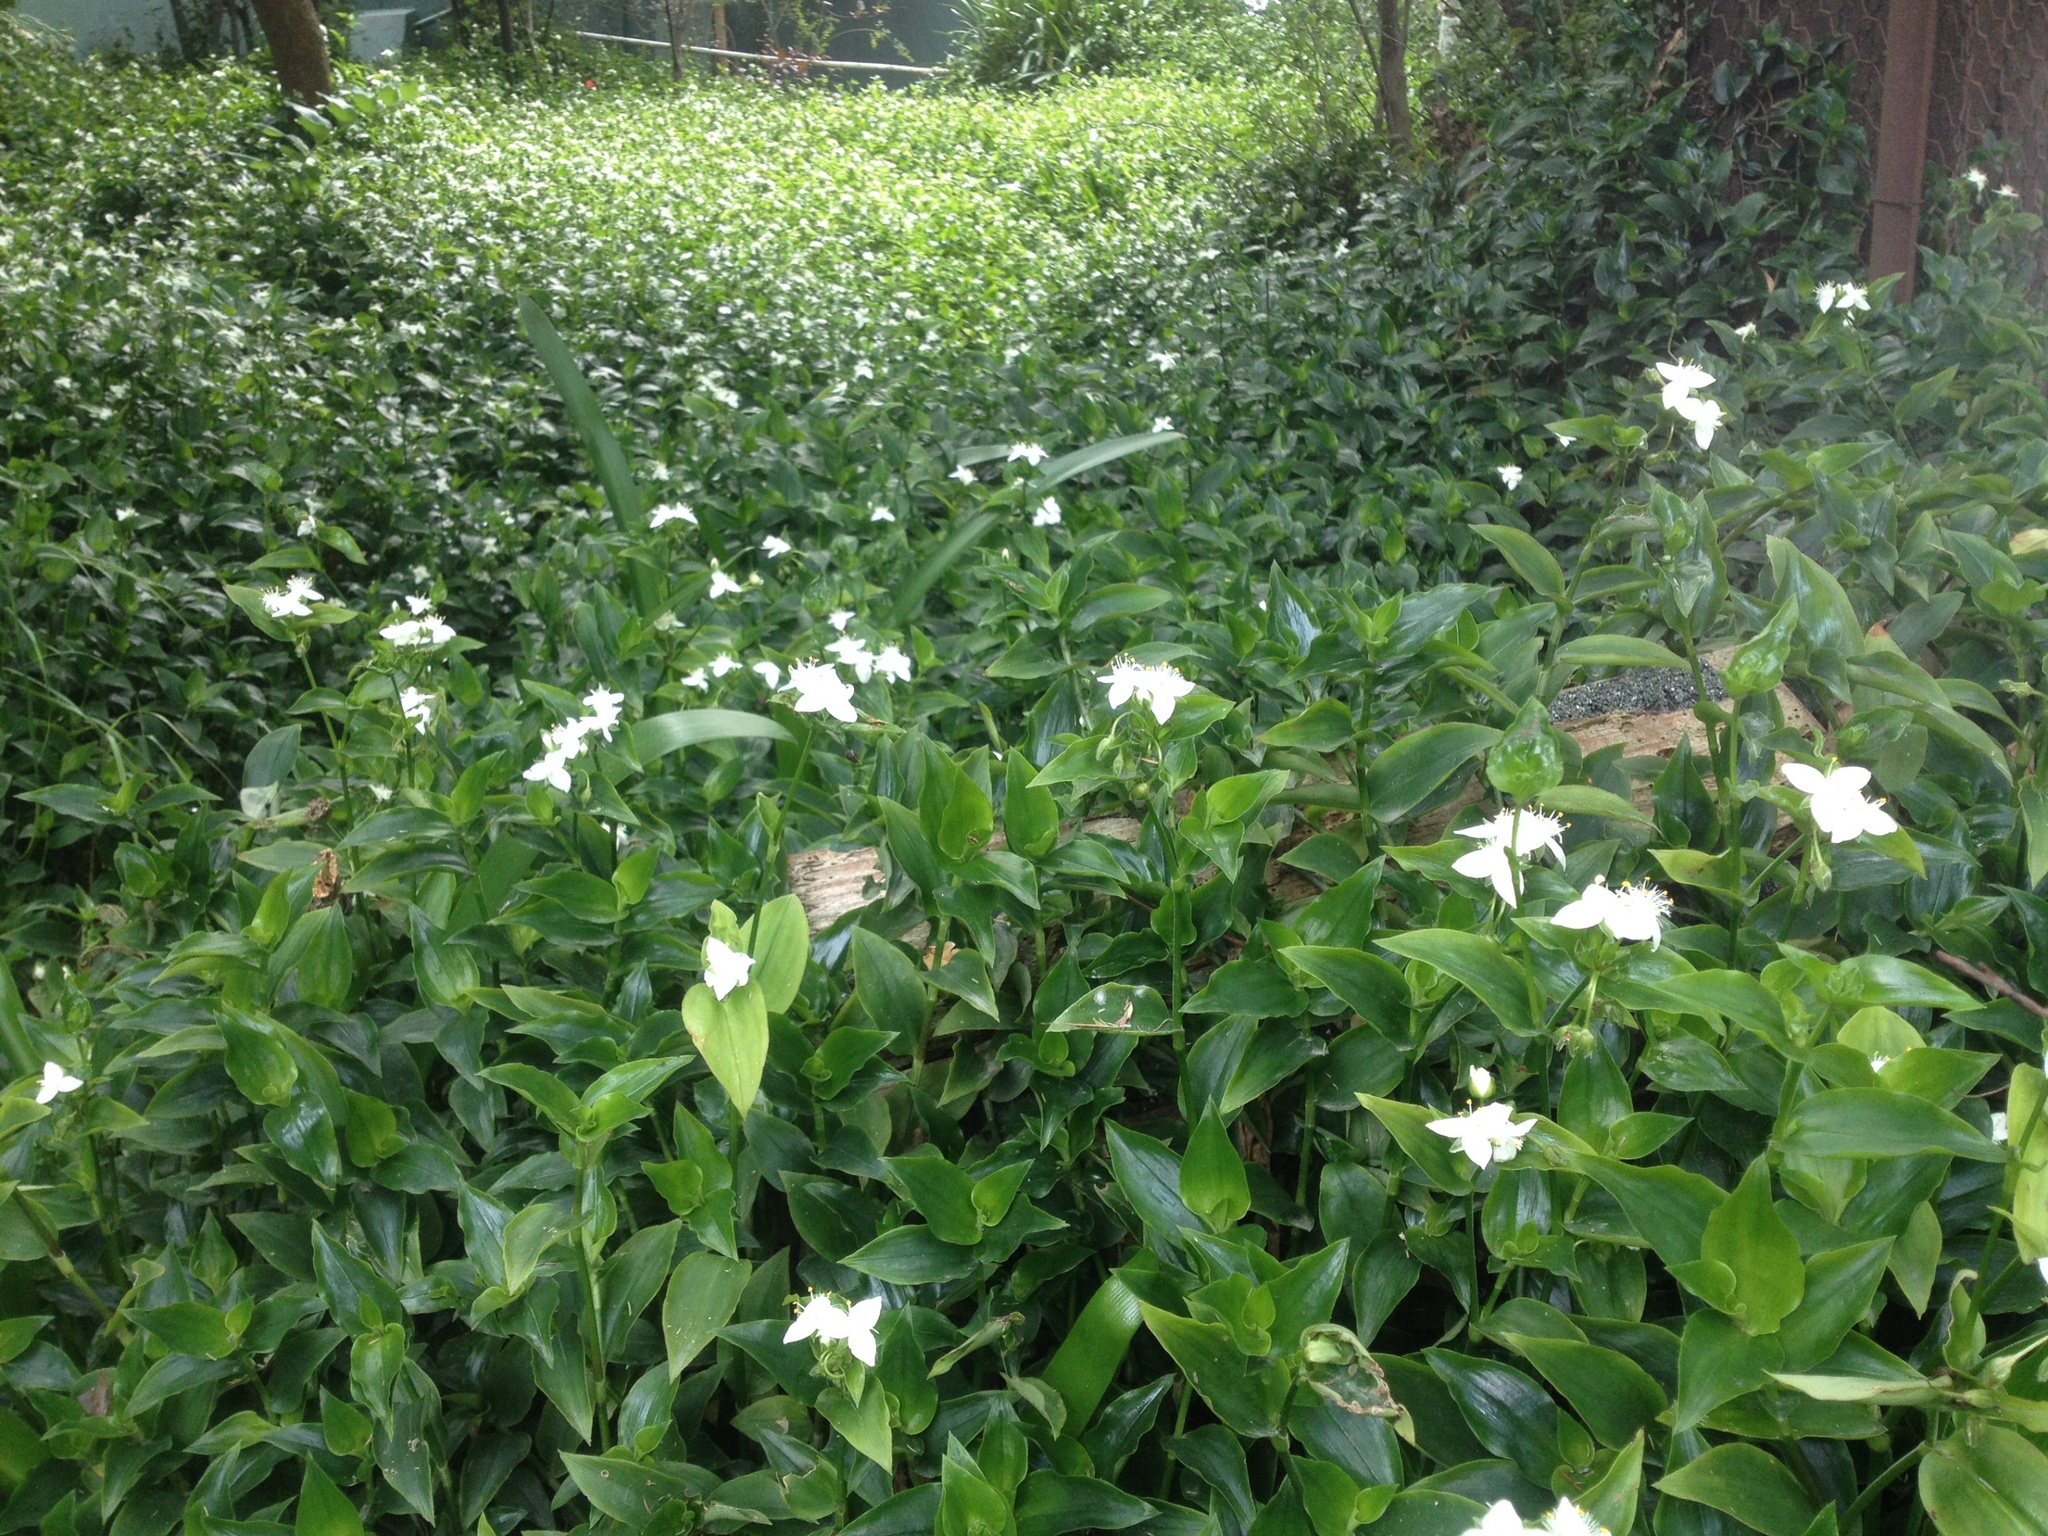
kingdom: Plantae
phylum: Tracheophyta
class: Liliopsida
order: Commelinales
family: Commelinaceae
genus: Tradescantia
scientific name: Tradescantia fluminensis
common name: Wandering-jew
